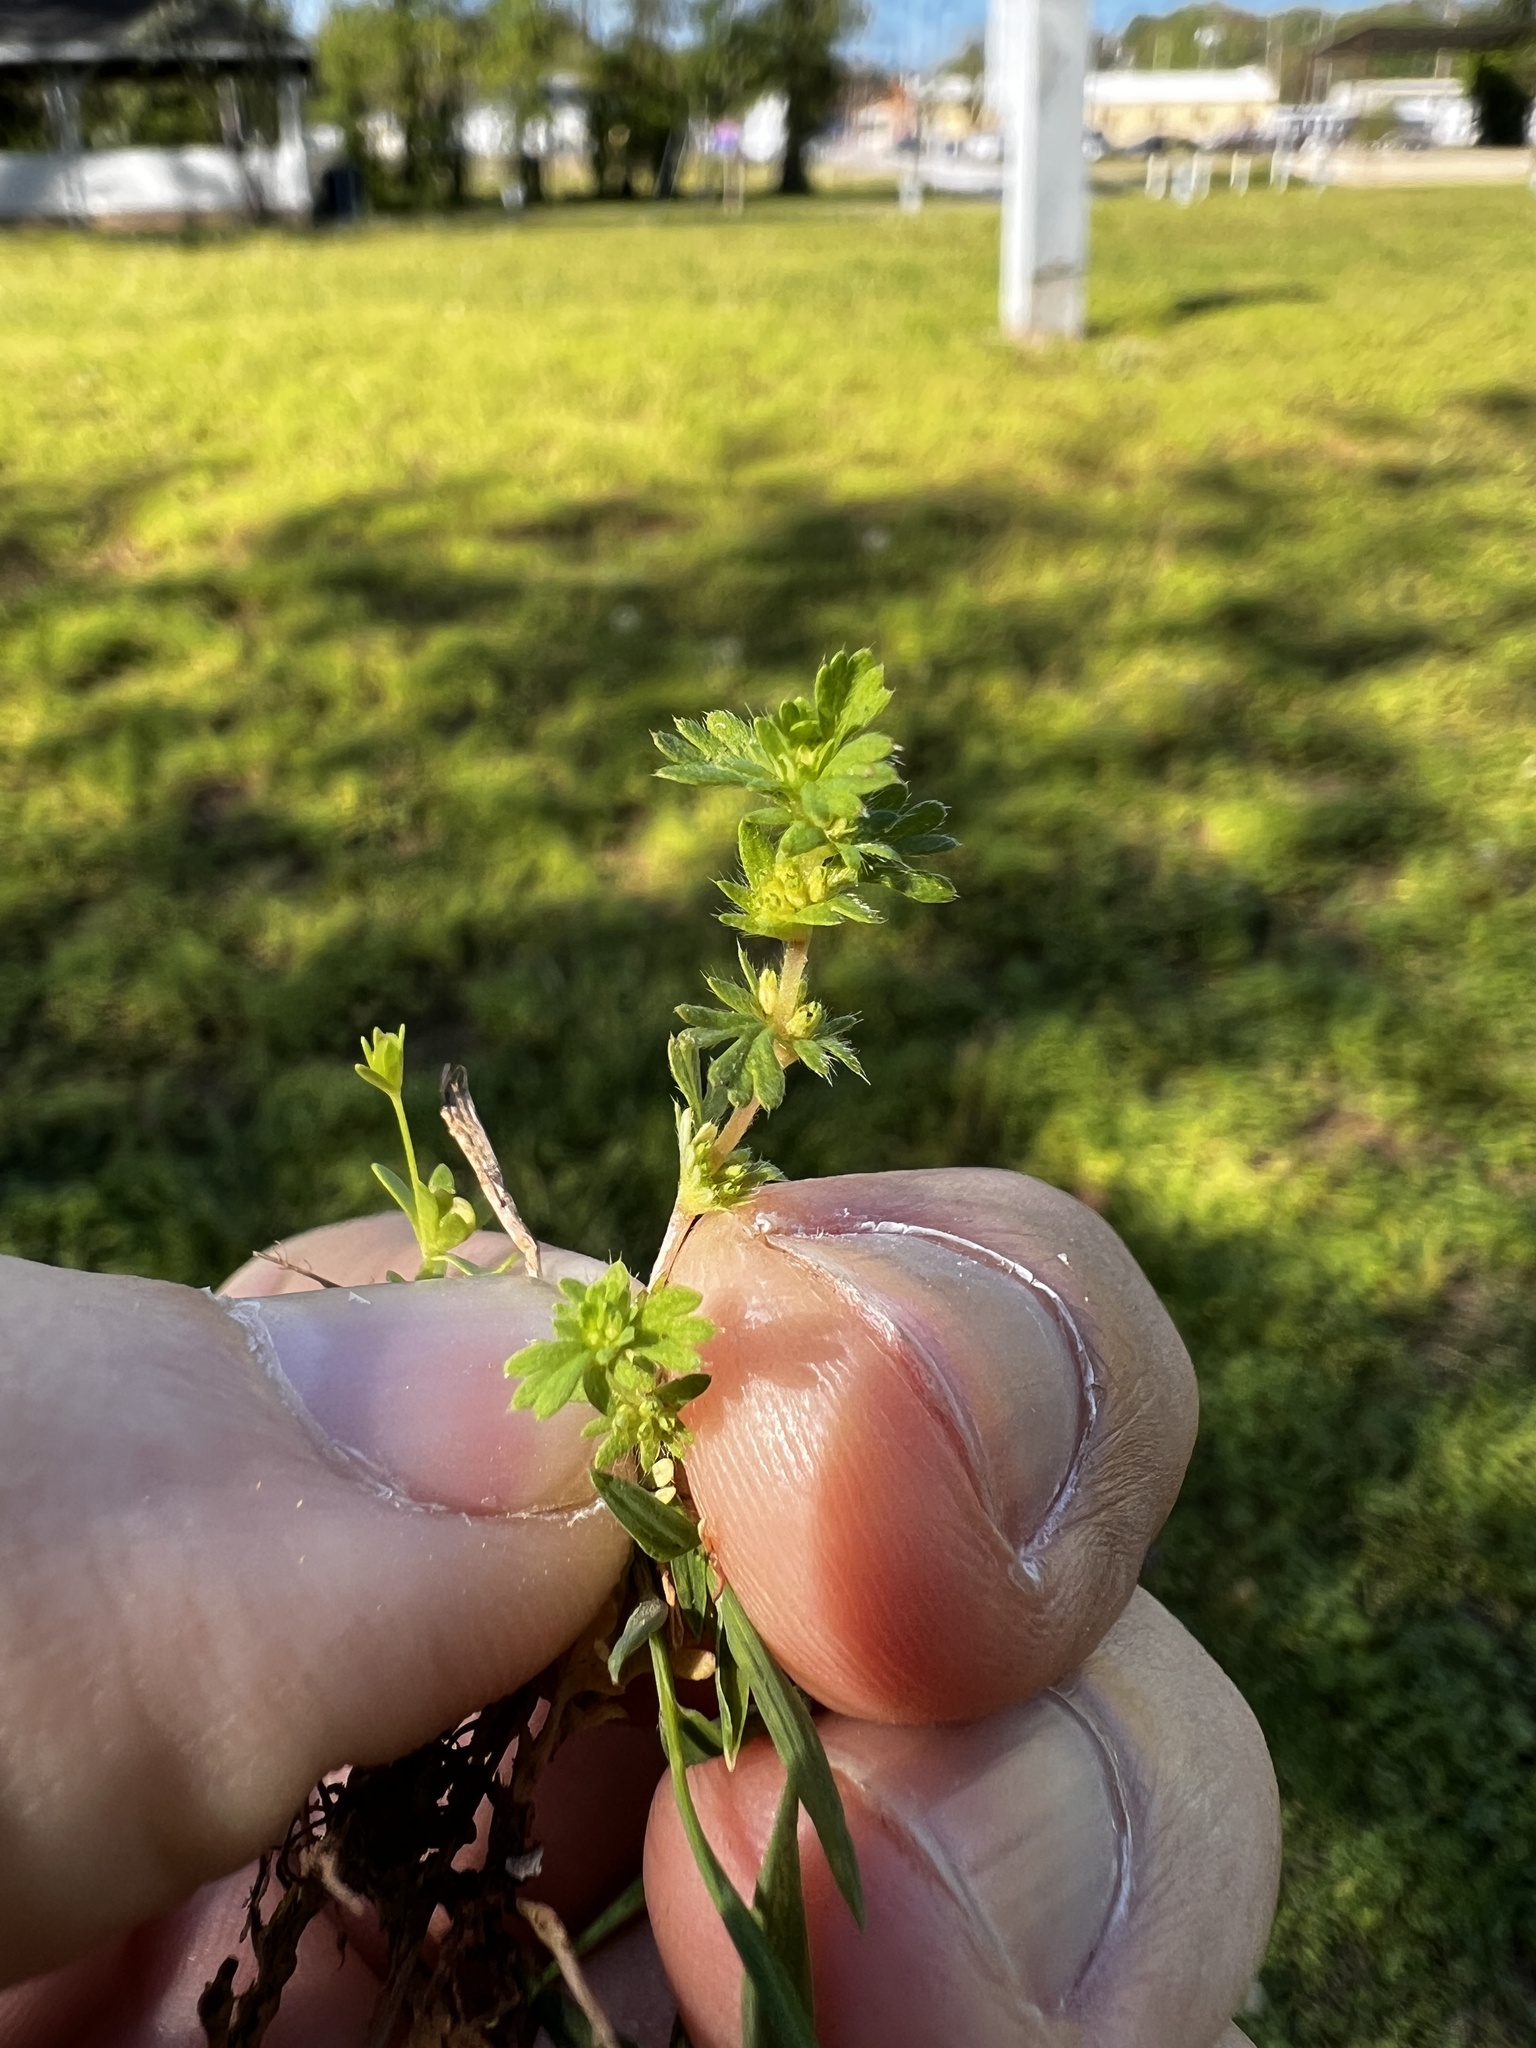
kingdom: Plantae
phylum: Tracheophyta
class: Magnoliopsida
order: Rosales
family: Rosaceae
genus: Aphanes
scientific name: Aphanes australis
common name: Slender parsley-piert
